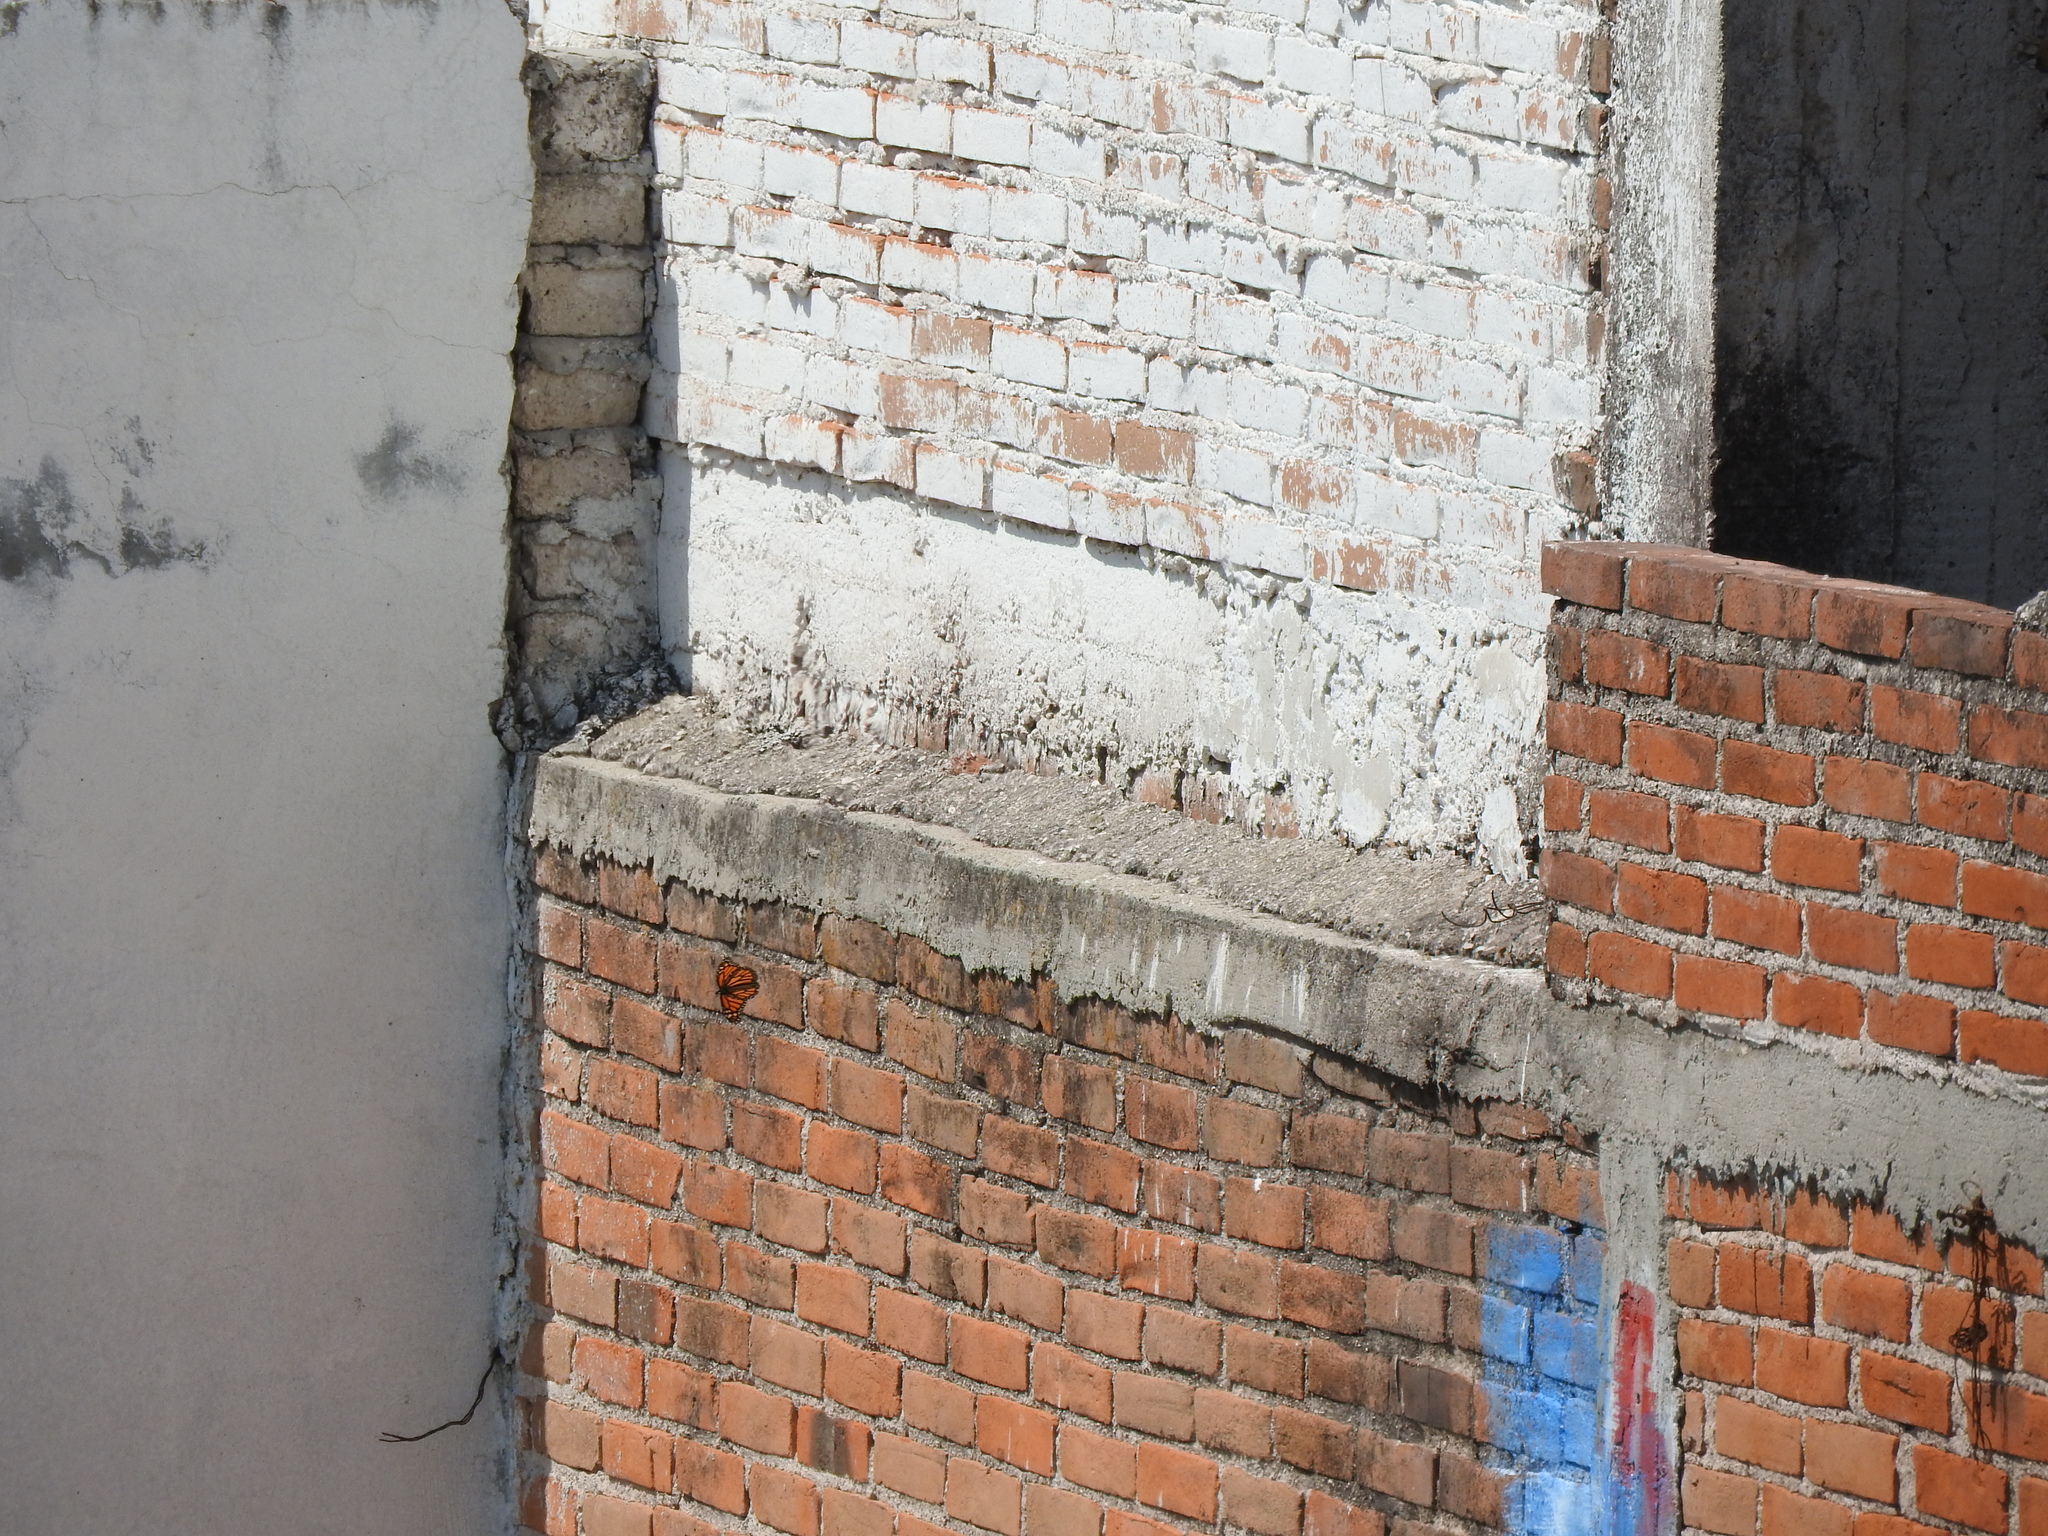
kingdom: Animalia
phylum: Arthropoda
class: Insecta
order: Lepidoptera
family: Nymphalidae
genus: Danaus
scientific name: Danaus plexippus
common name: Monarch
